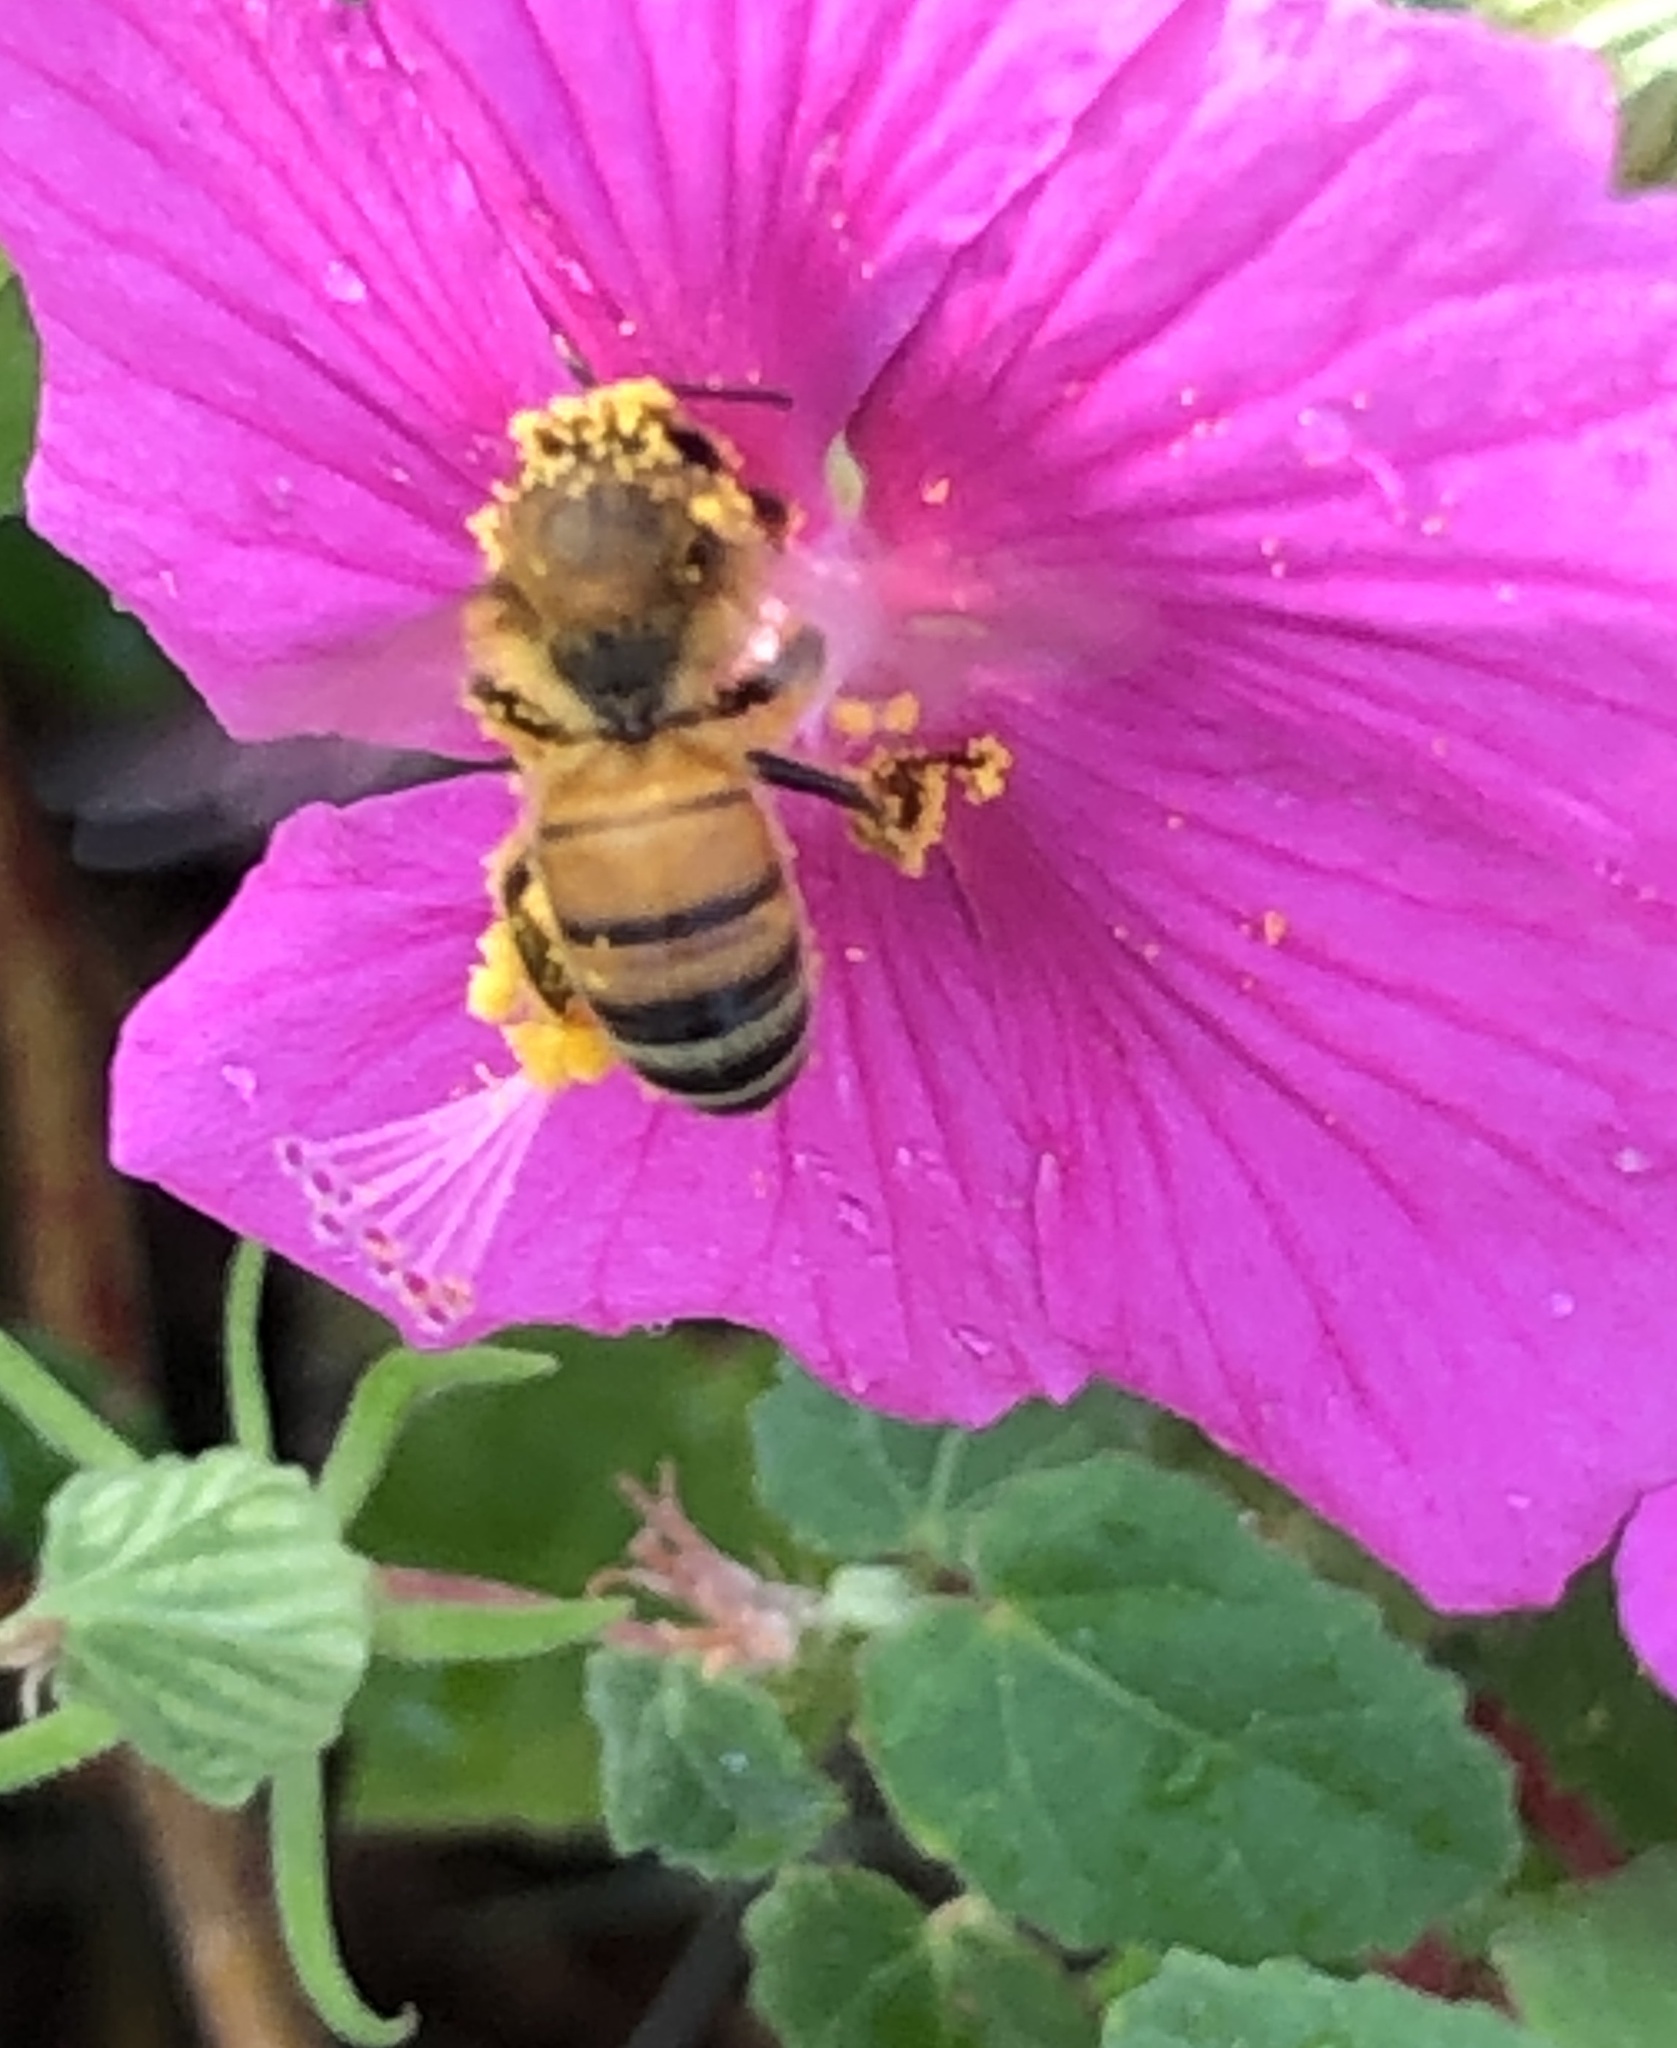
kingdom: Animalia
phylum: Arthropoda
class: Insecta
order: Hymenoptera
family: Apidae
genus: Apis
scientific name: Apis mellifera
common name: Honey bee
